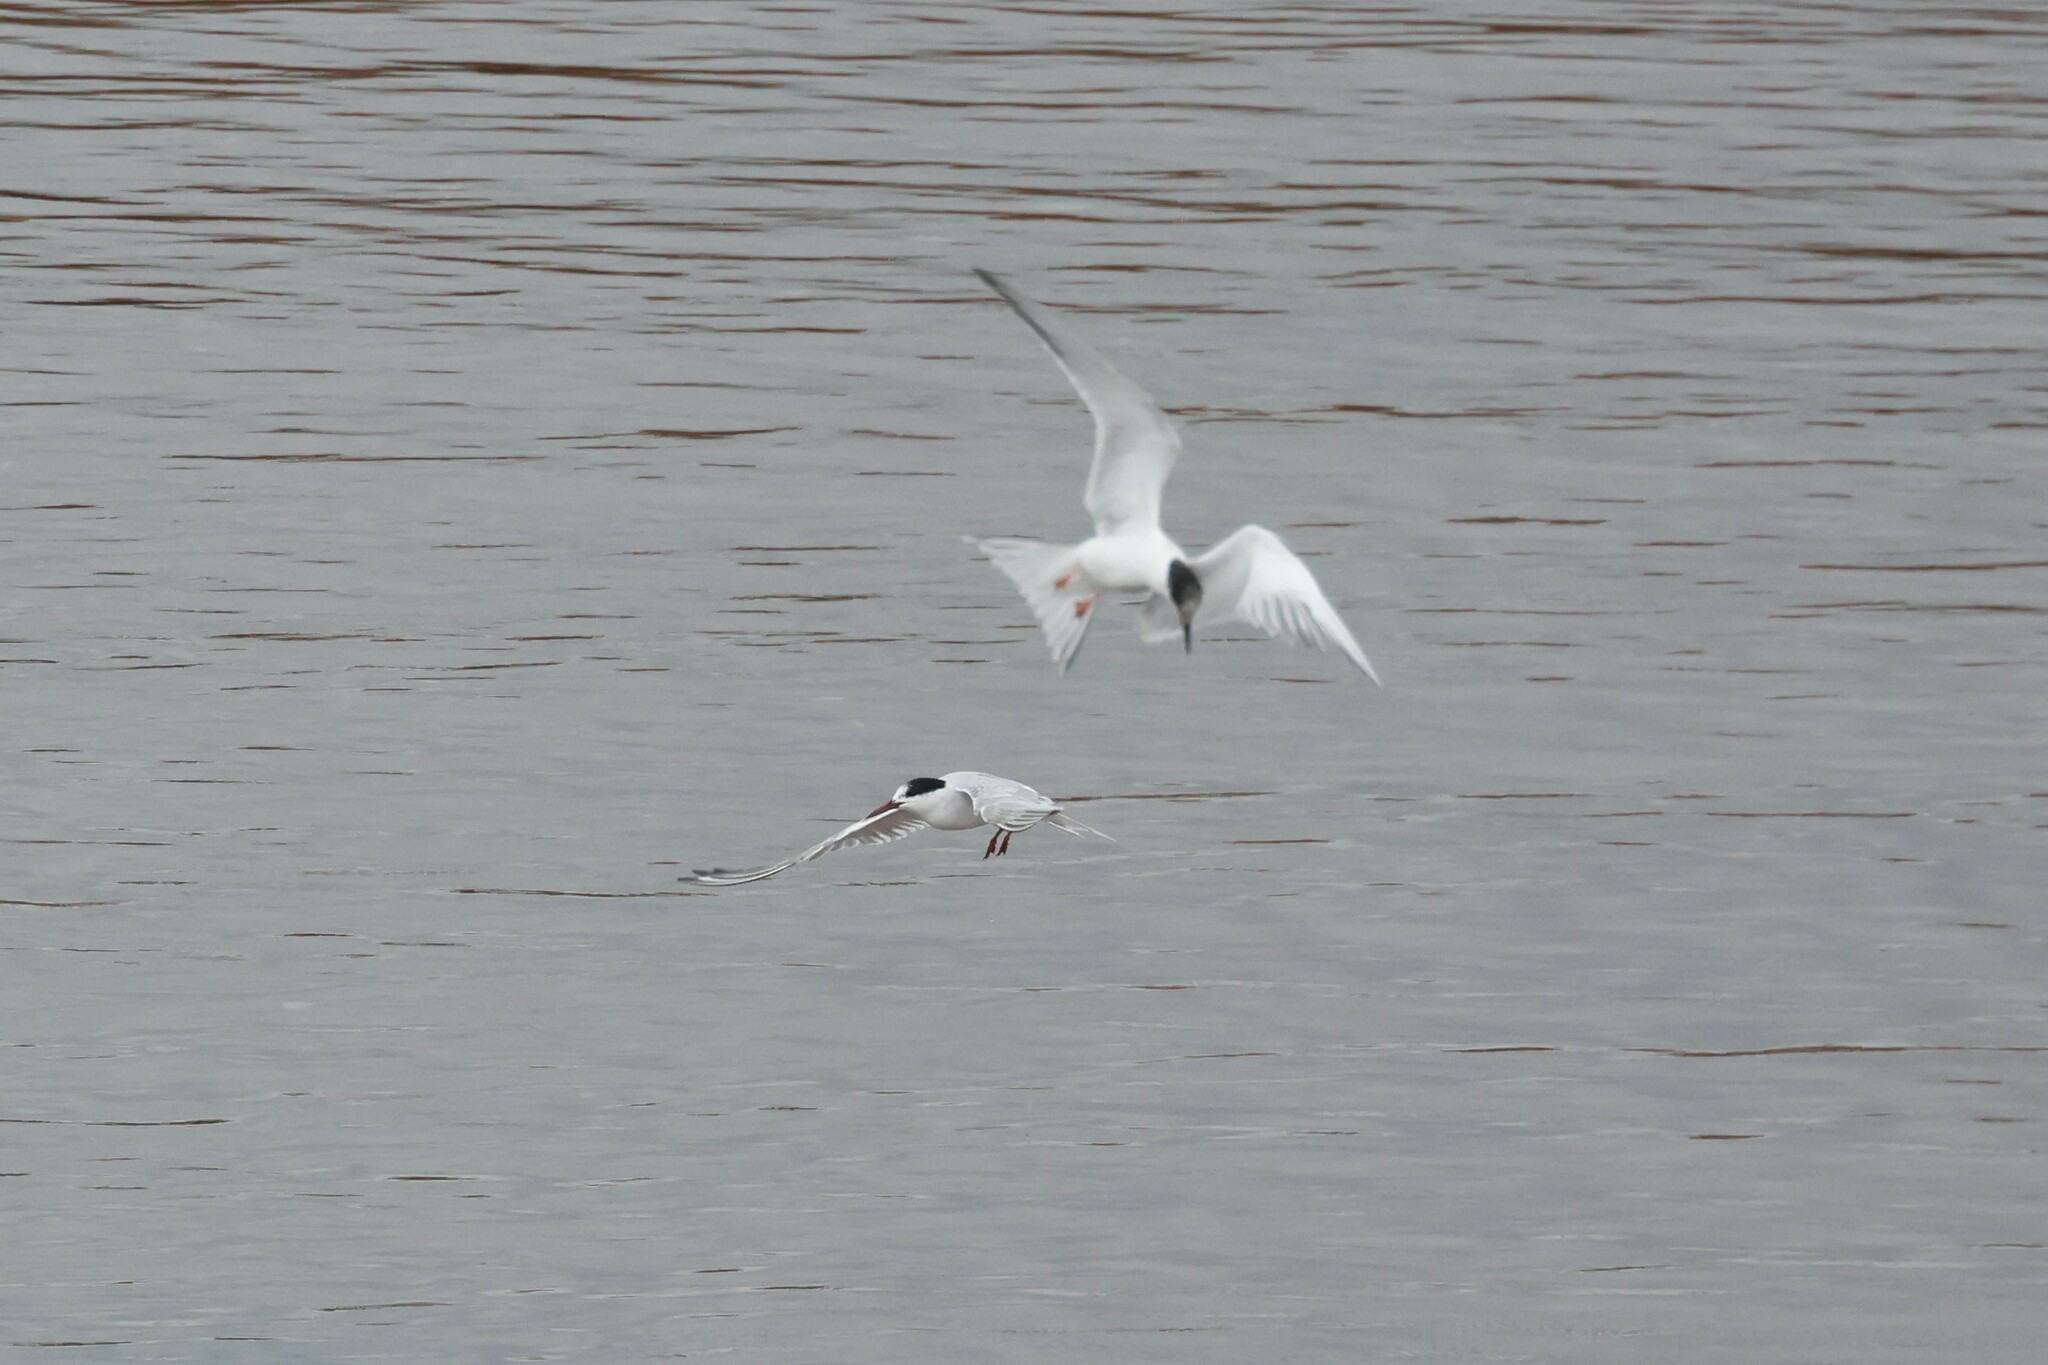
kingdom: Animalia
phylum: Chordata
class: Aves
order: Charadriiformes
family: Laridae
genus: Sterna
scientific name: Sterna hirundo
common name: Common tern
